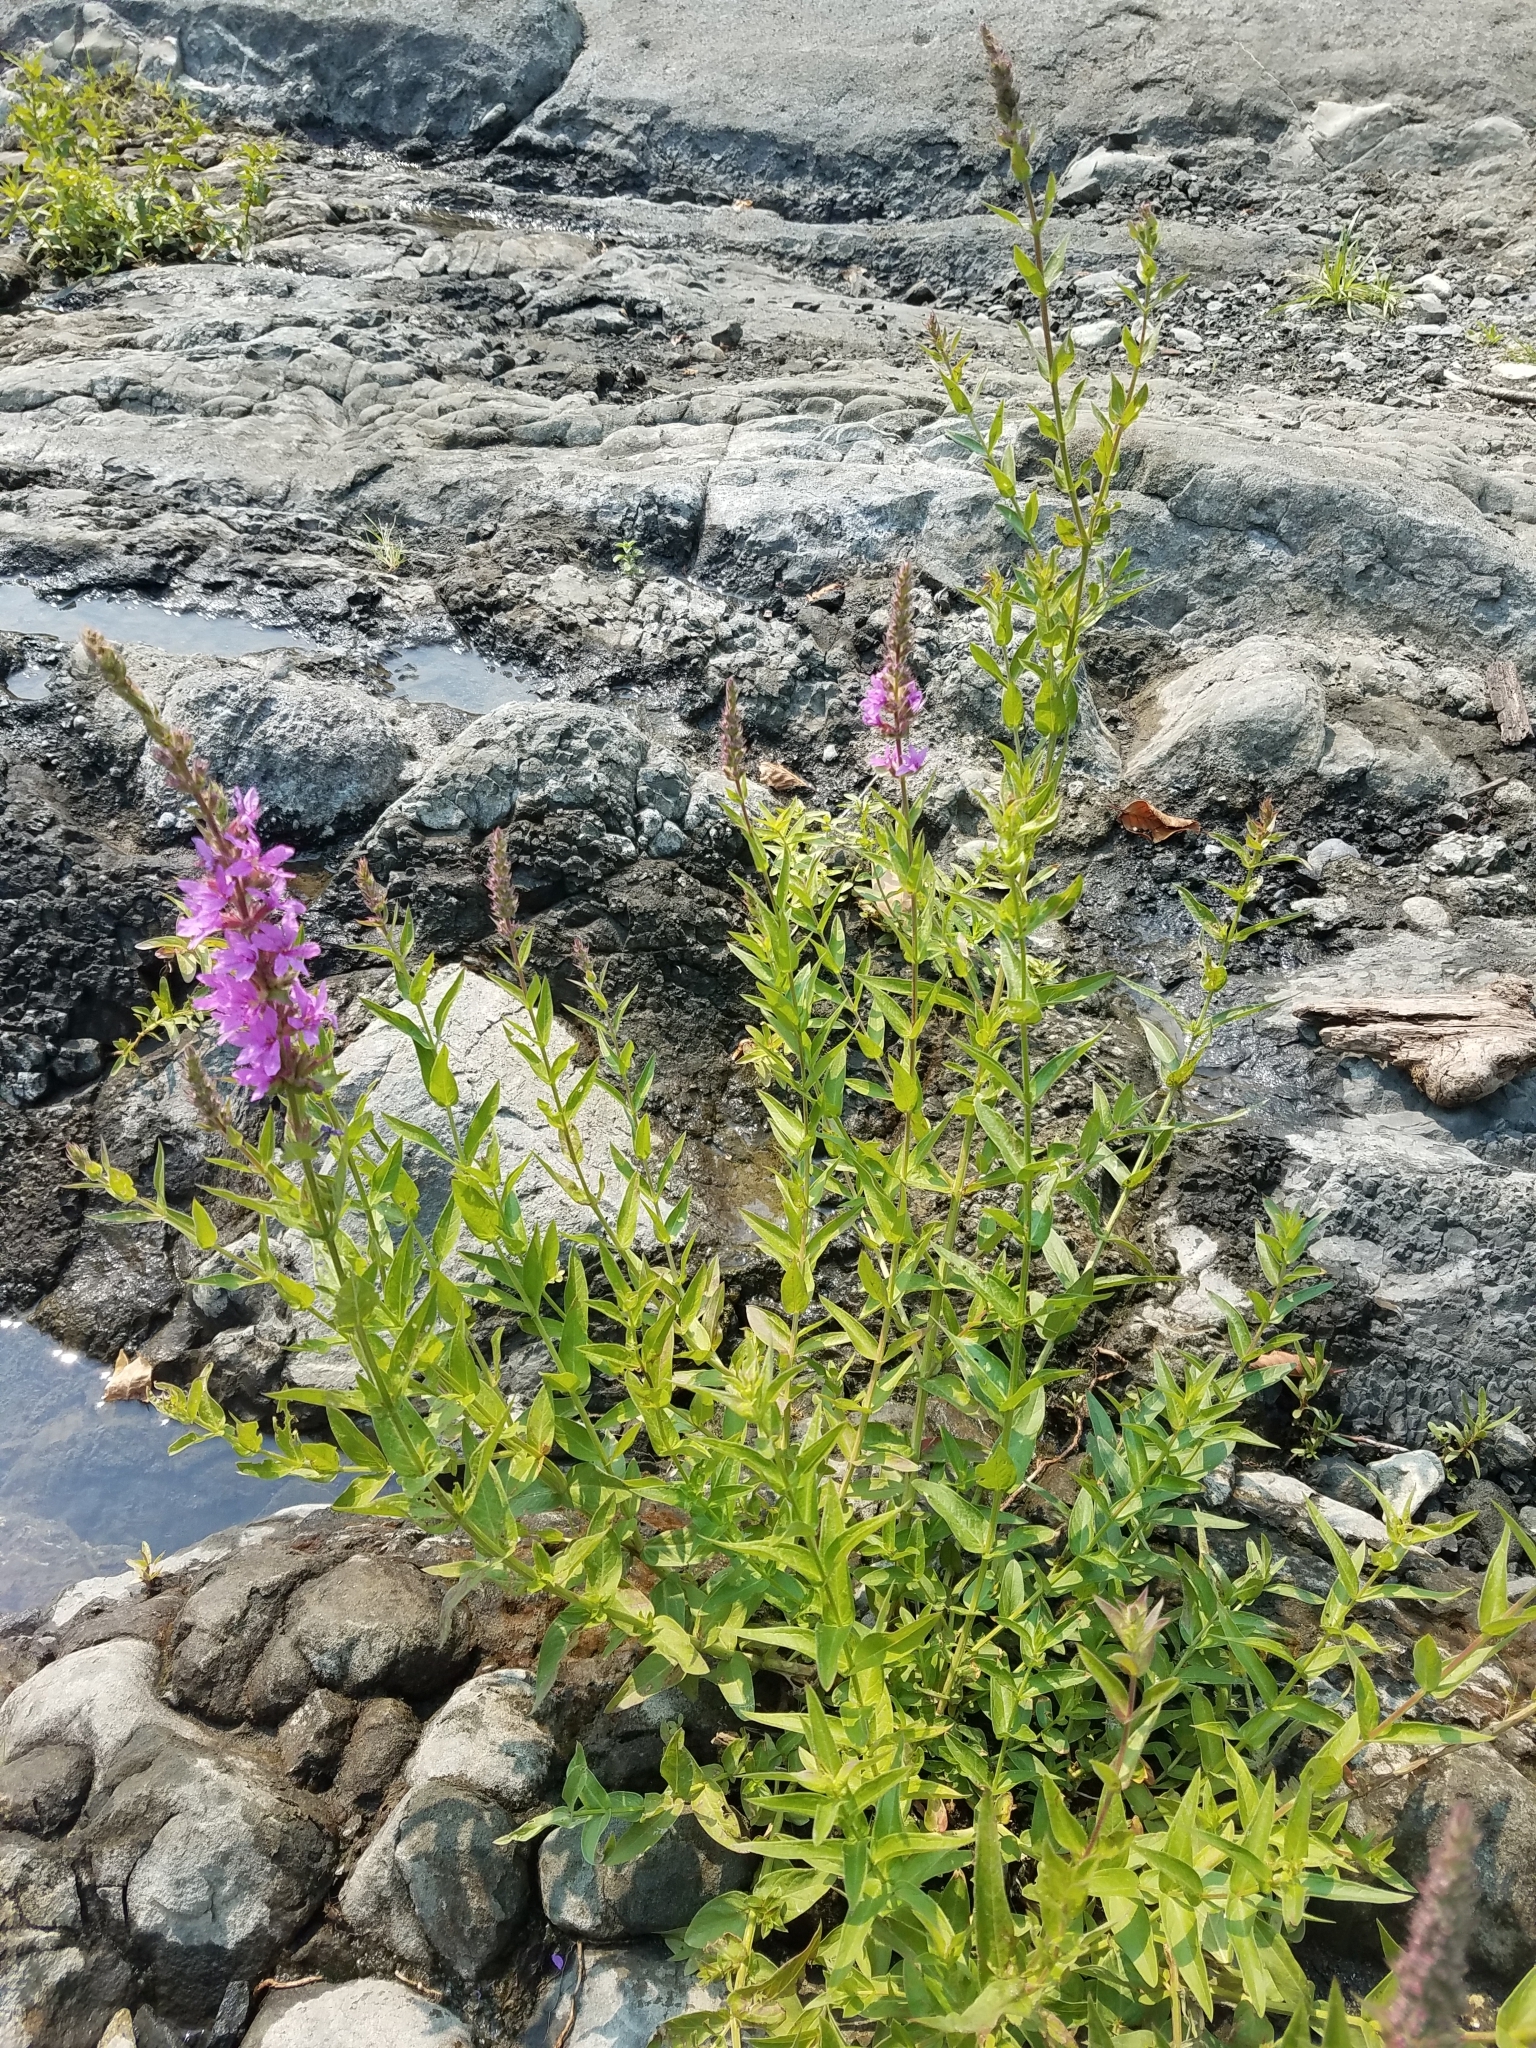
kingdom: Plantae
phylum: Tracheophyta
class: Magnoliopsida
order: Myrtales
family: Lythraceae
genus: Lythrum
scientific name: Lythrum salicaria
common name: Purple loosestrife
